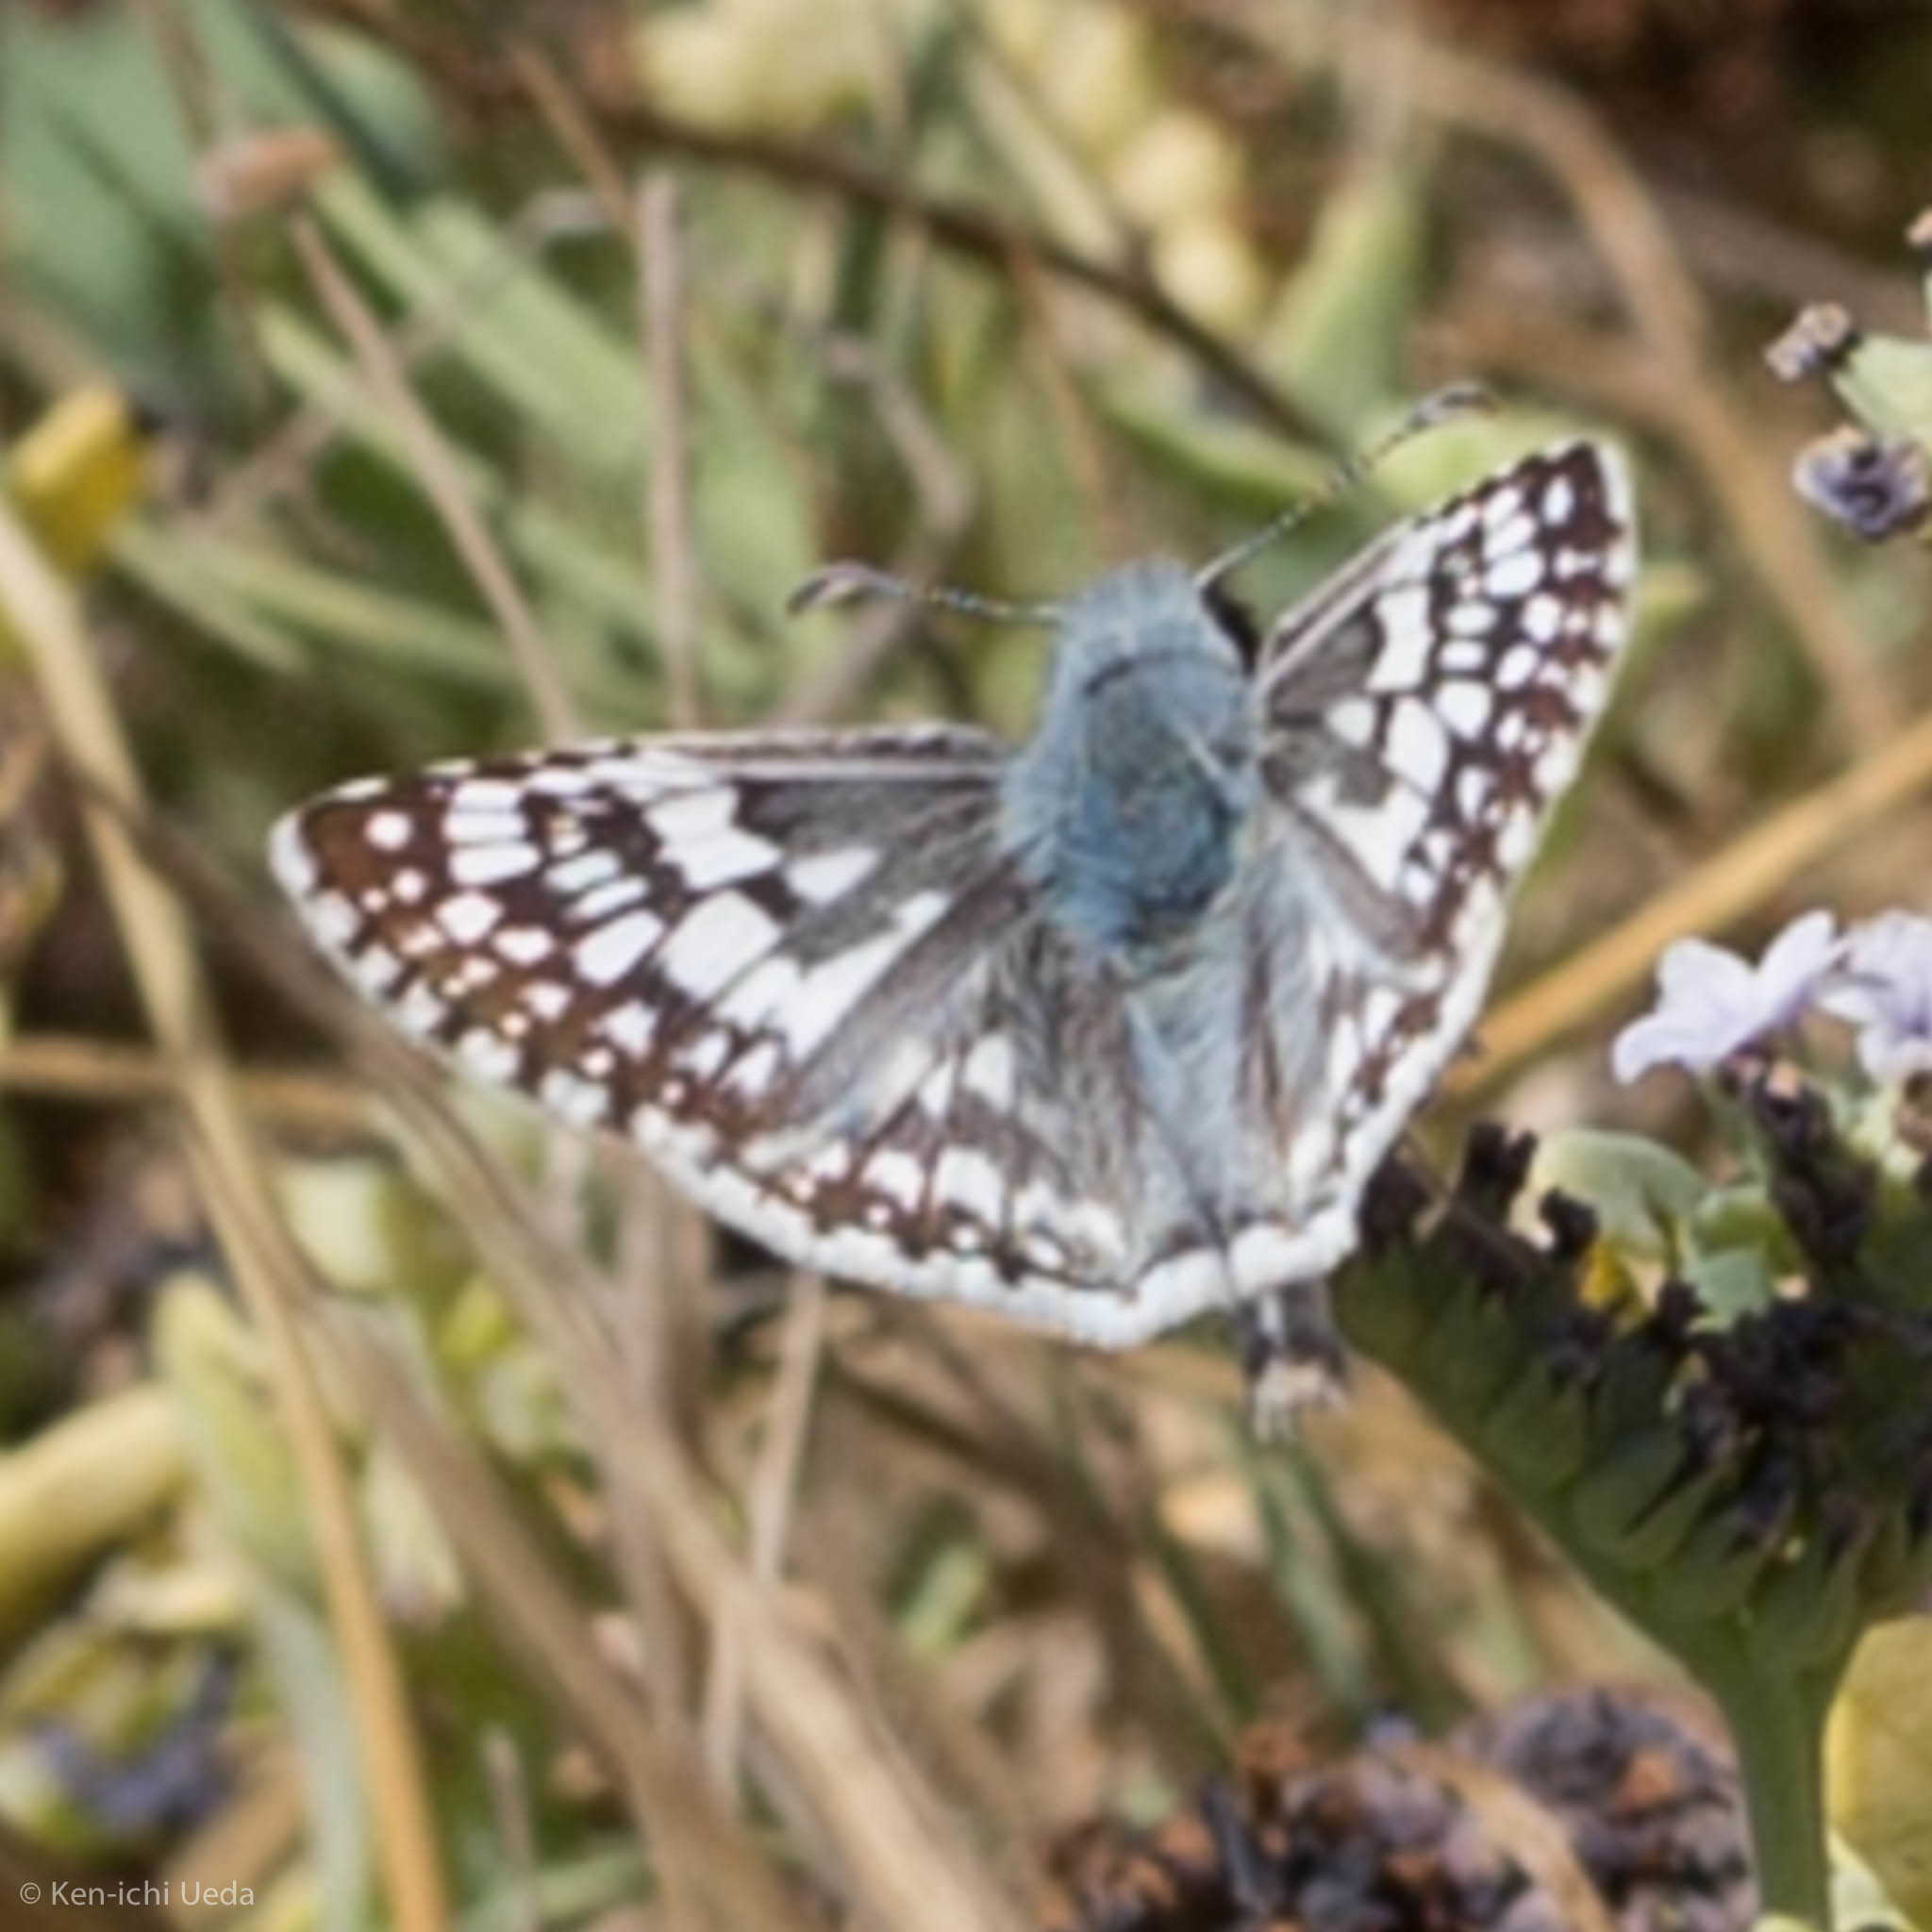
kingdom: Animalia
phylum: Arthropoda
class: Insecta
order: Lepidoptera
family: Hesperiidae
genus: Burnsius
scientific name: Burnsius communis
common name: Common checkered-skipper
